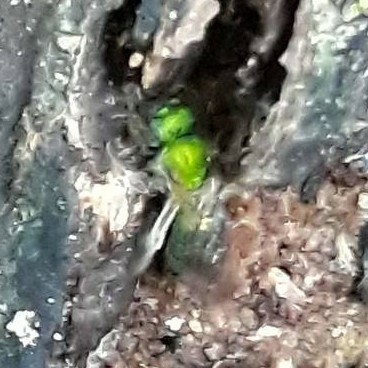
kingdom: Animalia
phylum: Arthropoda
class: Insecta
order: Hymenoptera
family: Halictidae
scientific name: Halictidae
